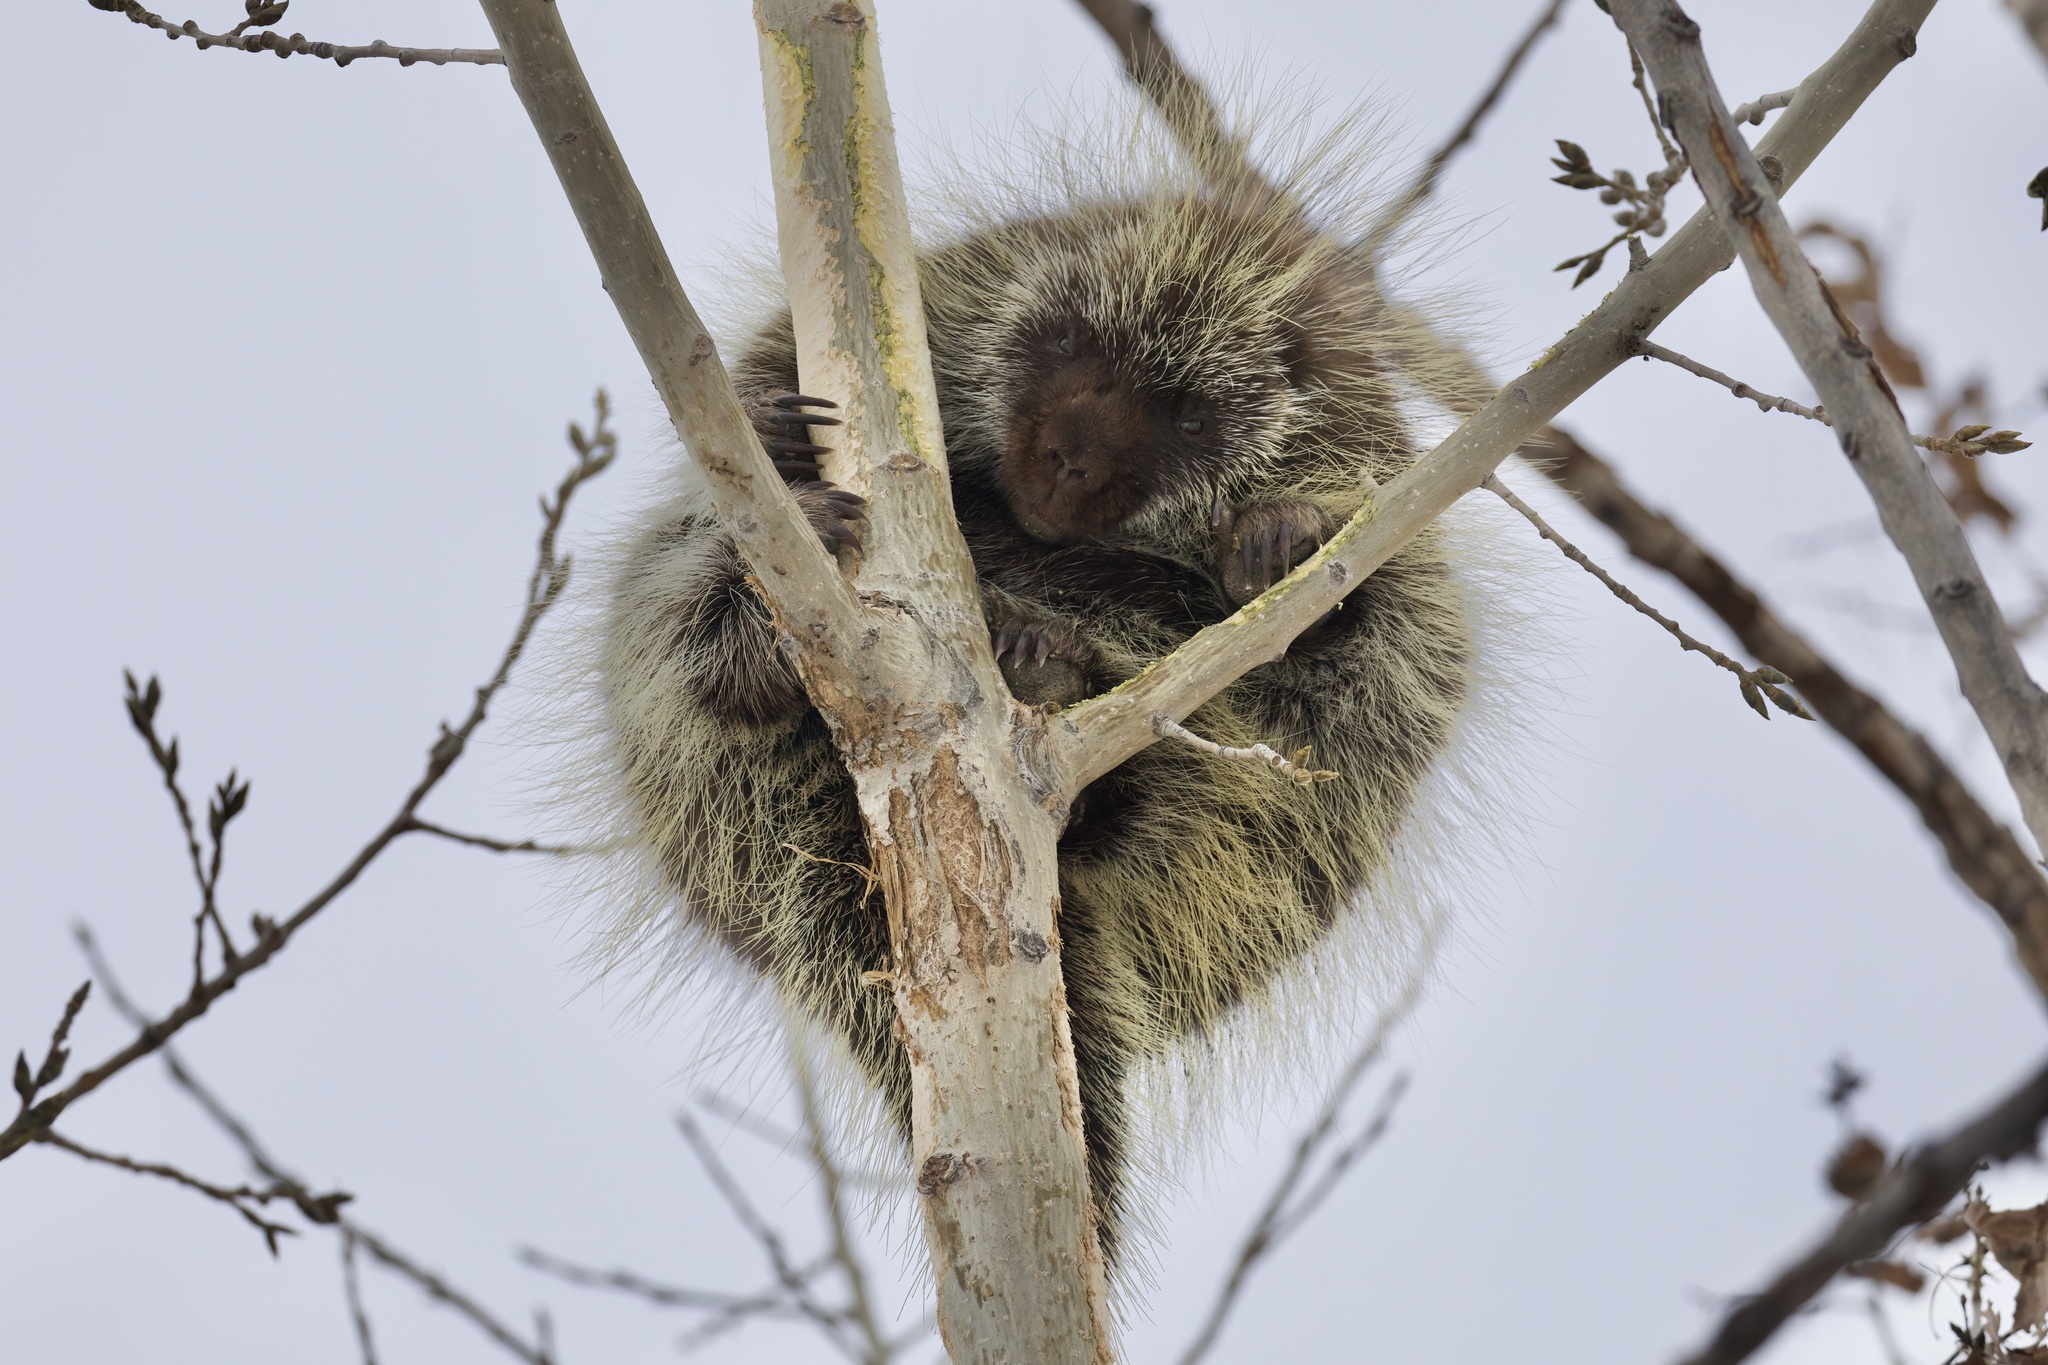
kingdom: Animalia
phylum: Chordata
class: Mammalia
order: Rodentia
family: Erethizontidae
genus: Erethizon
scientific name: Erethizon dorsatus
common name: North american porcupine
